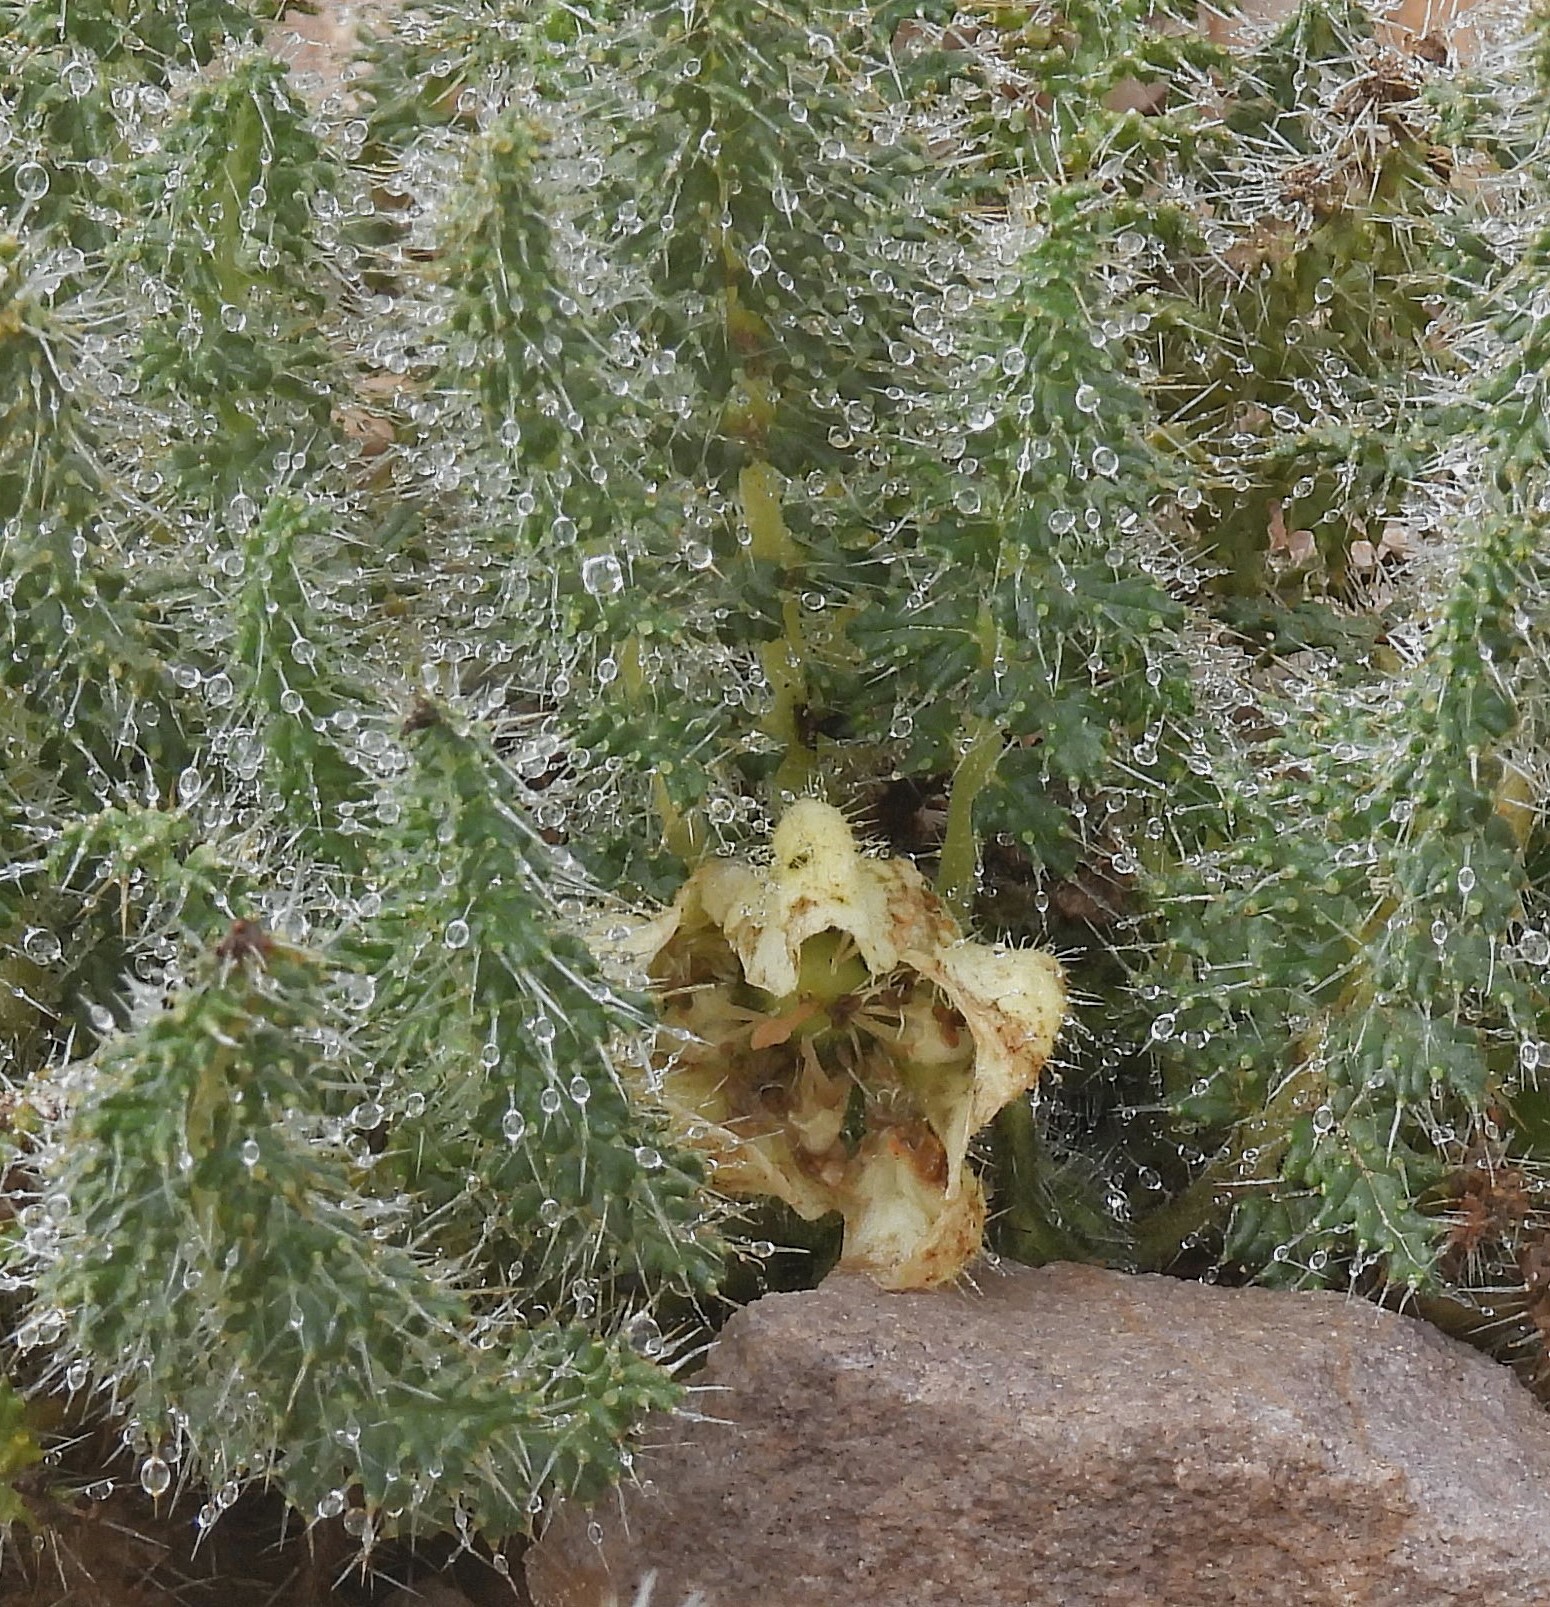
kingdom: Plantae
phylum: Tracheophyta
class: Magnoliopsida
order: Cornales
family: Loasaceae
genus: Caiophora
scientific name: Caiophora coronata
